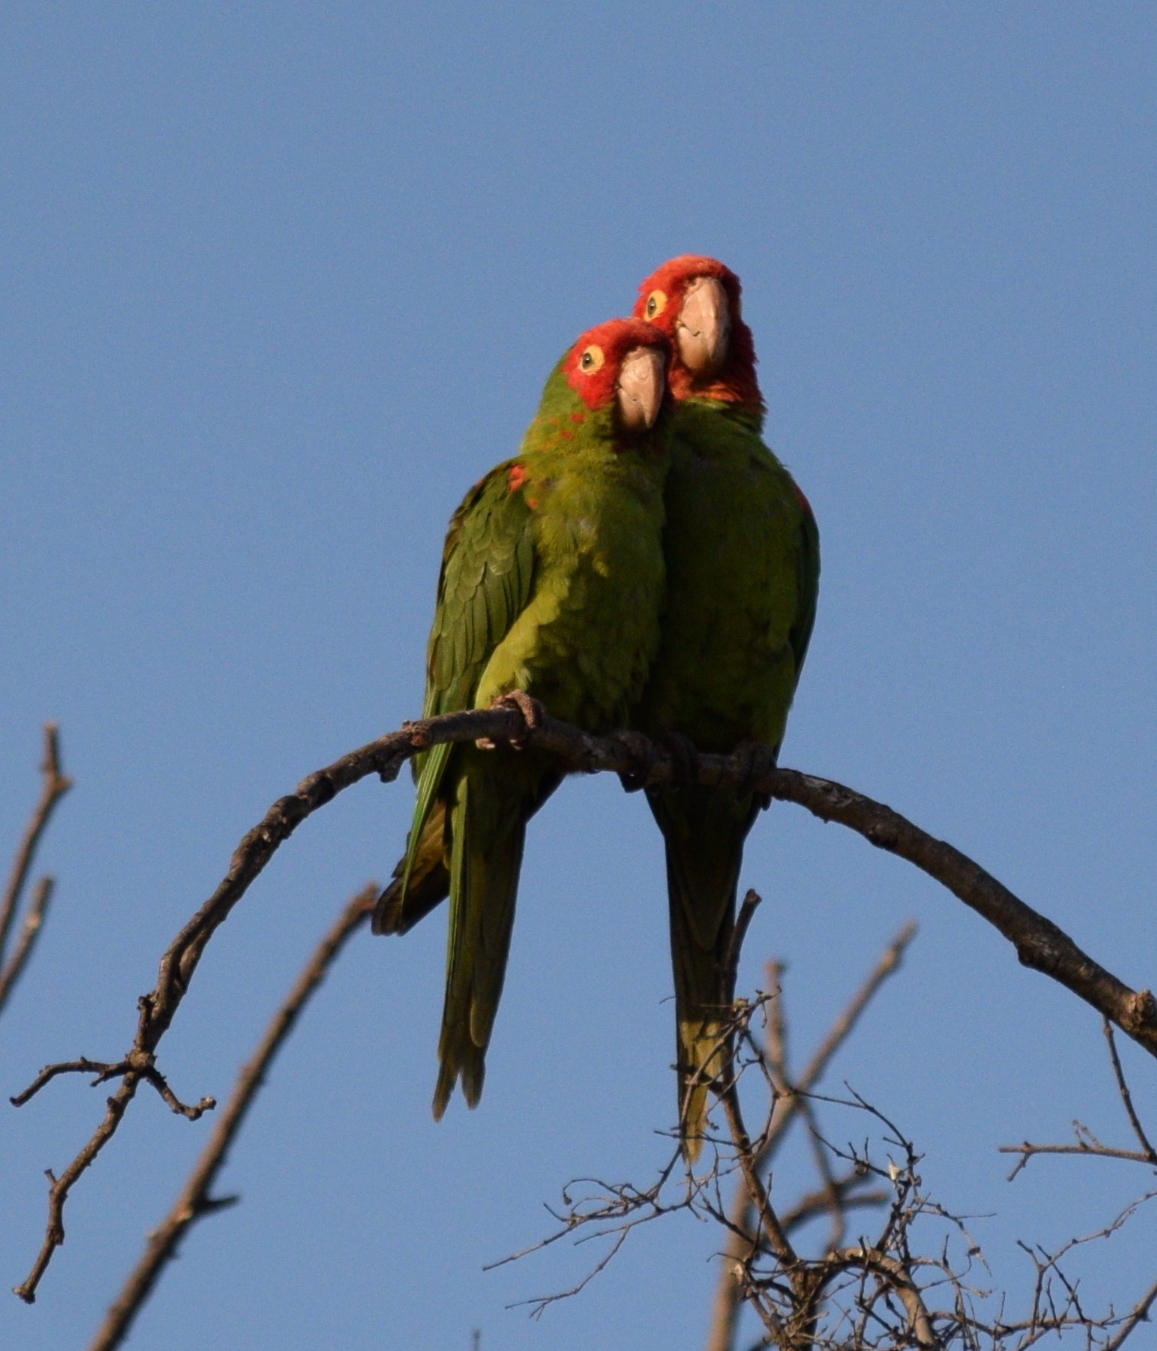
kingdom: Animalia
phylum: Chordata
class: Aves
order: Psittaciformes
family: Psittacidae
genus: Aratinga
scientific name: Aratinga erythrogenys
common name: Red-masked parakeet
